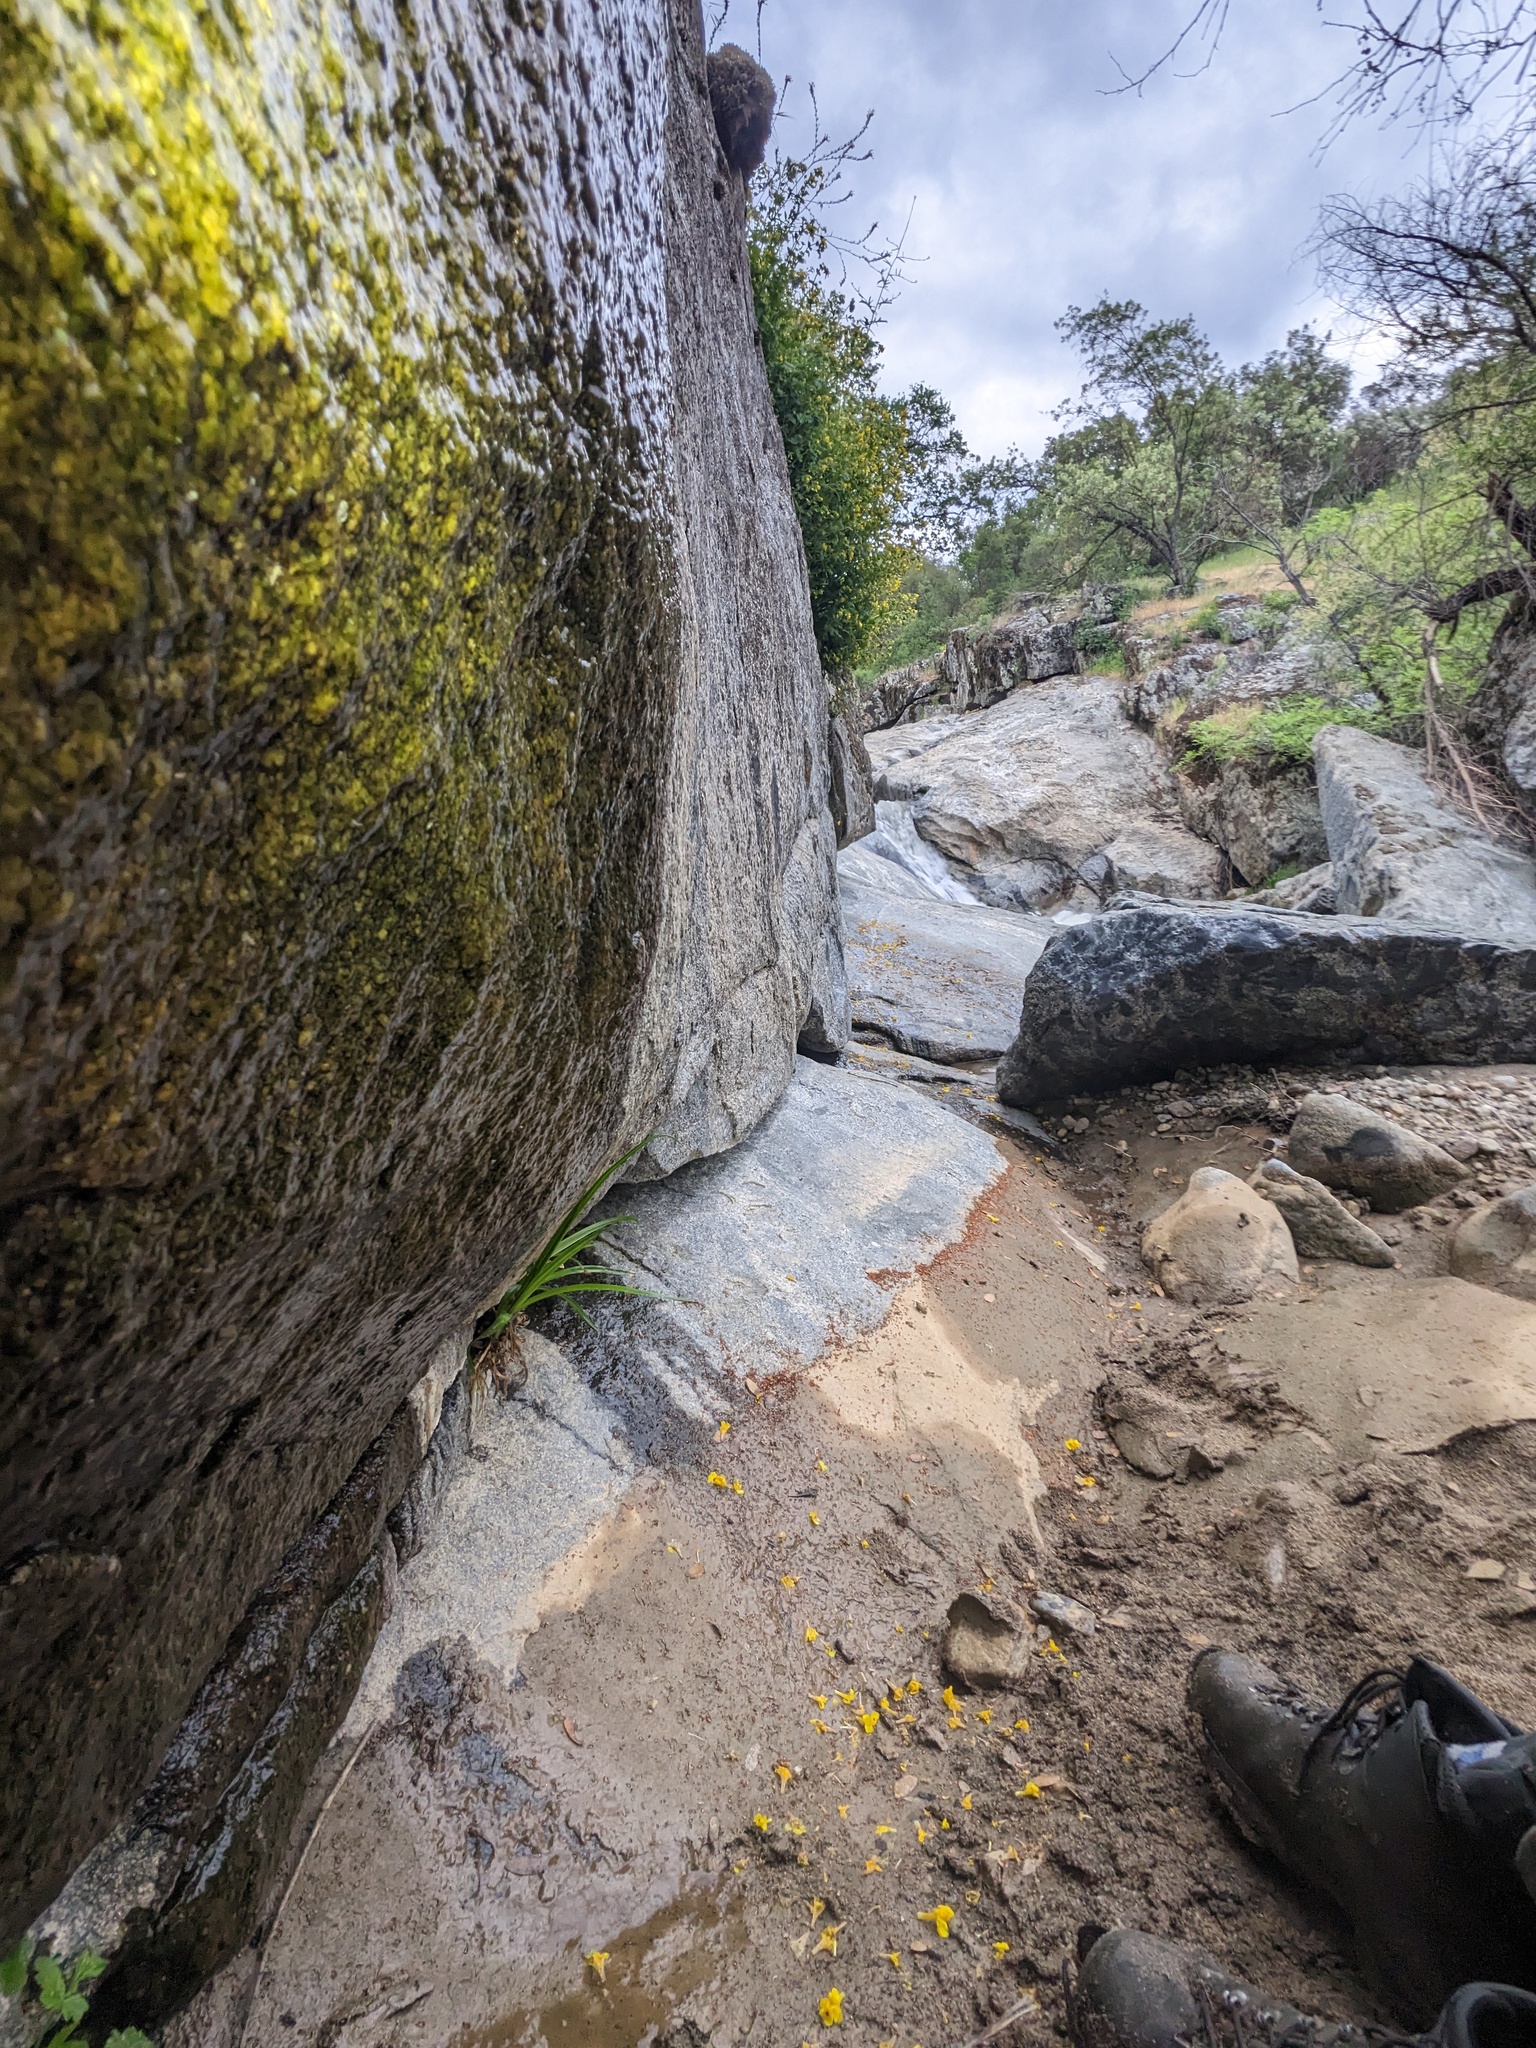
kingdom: Animalia
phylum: Arthropoda
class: Insecta
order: Hemiptera
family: Macroveliidae
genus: Oravelia
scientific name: Oravelia pege
